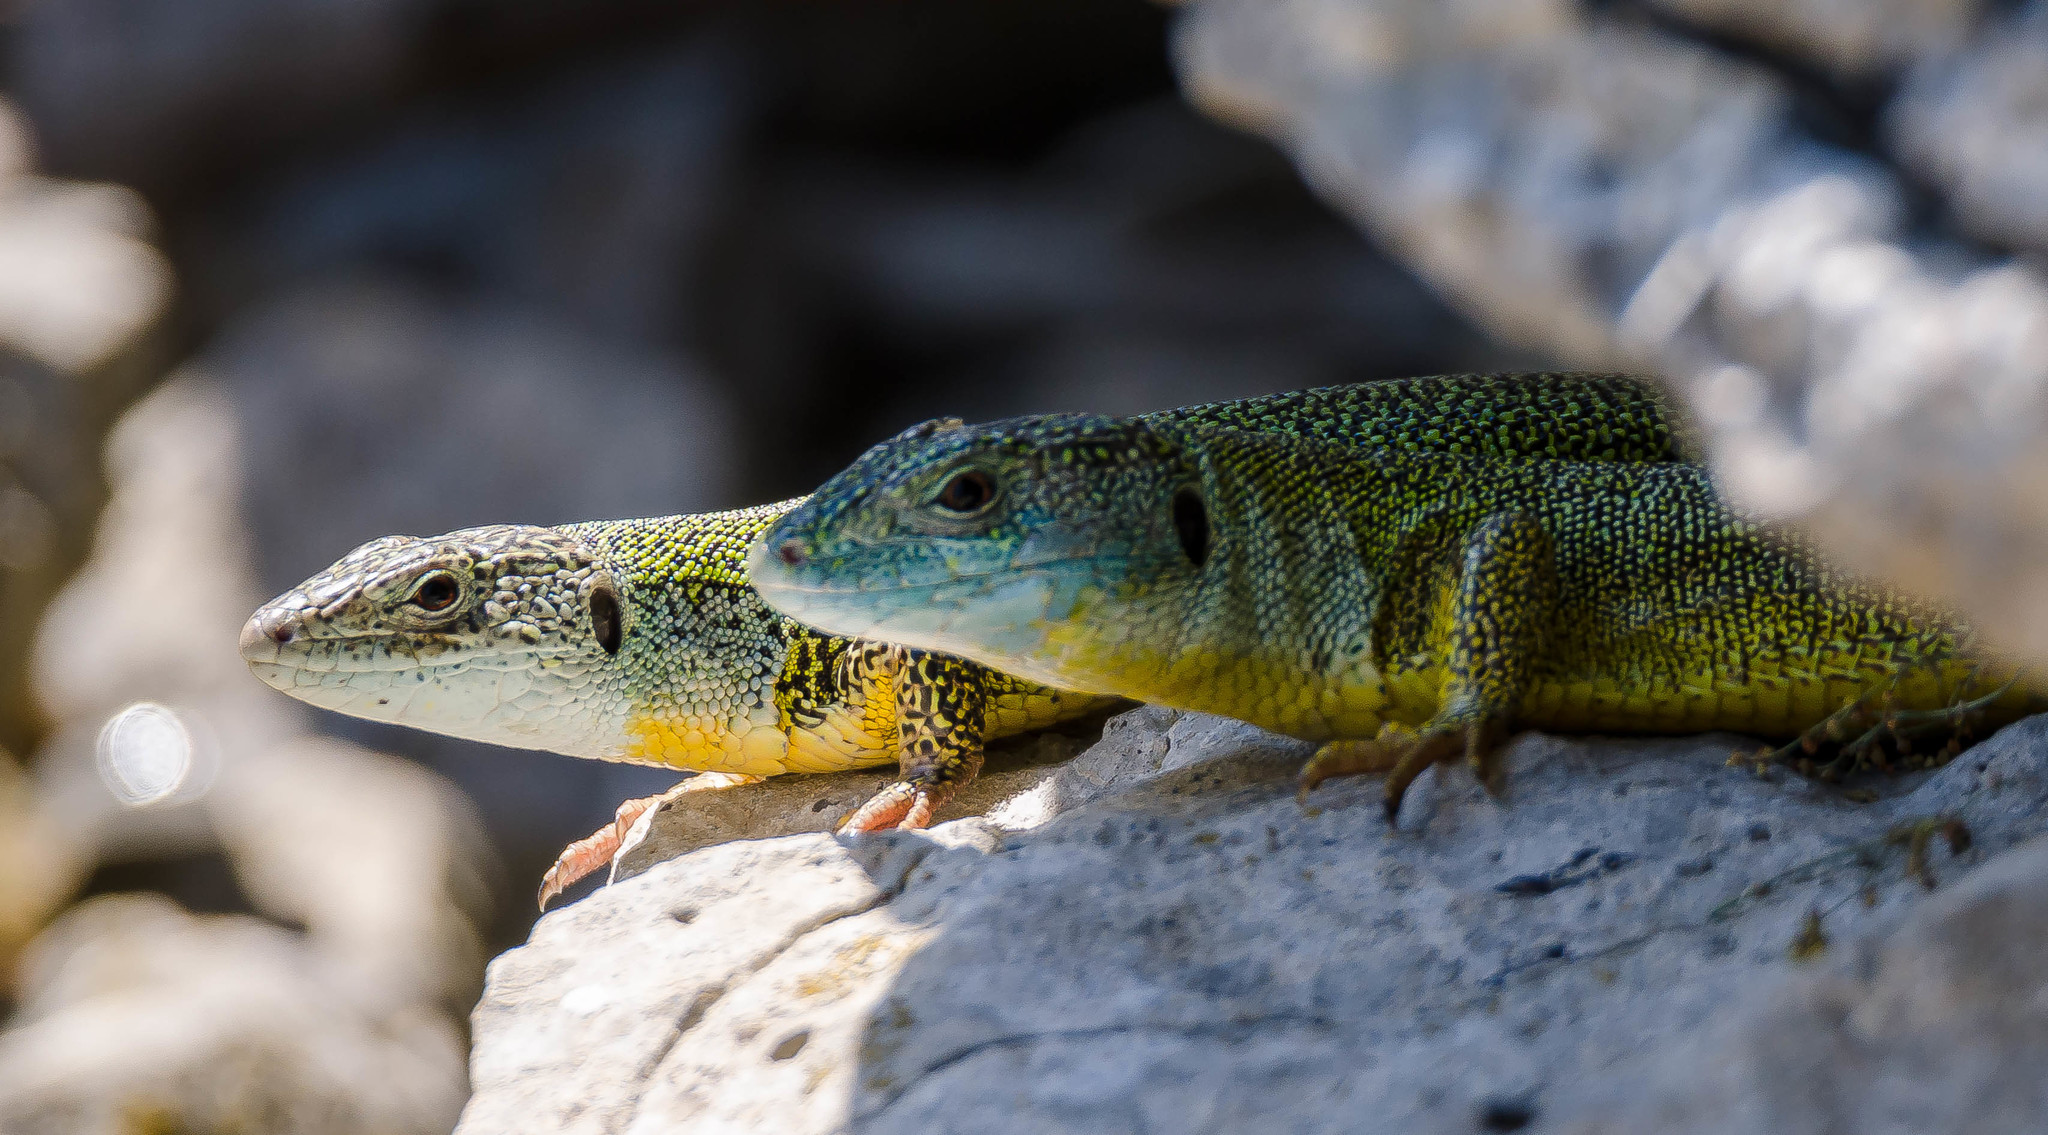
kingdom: Animalia
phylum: Chordata
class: Squamata
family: Lacertidae
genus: Lacerta
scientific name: Lacerta diplochondrodes
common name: Rhodos green lizard
